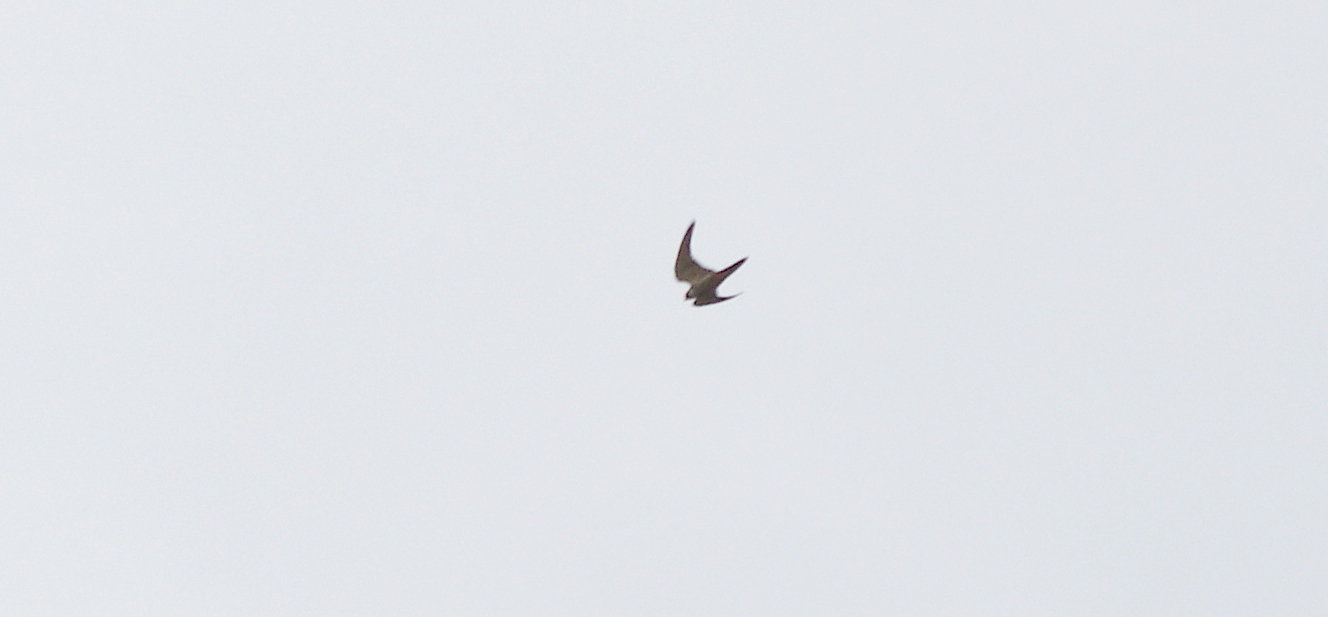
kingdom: Animalia
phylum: Chordata
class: Aves
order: Falconiformes
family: Falconidae
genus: Falco
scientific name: Falco subbuteo
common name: Eurasian hobby
